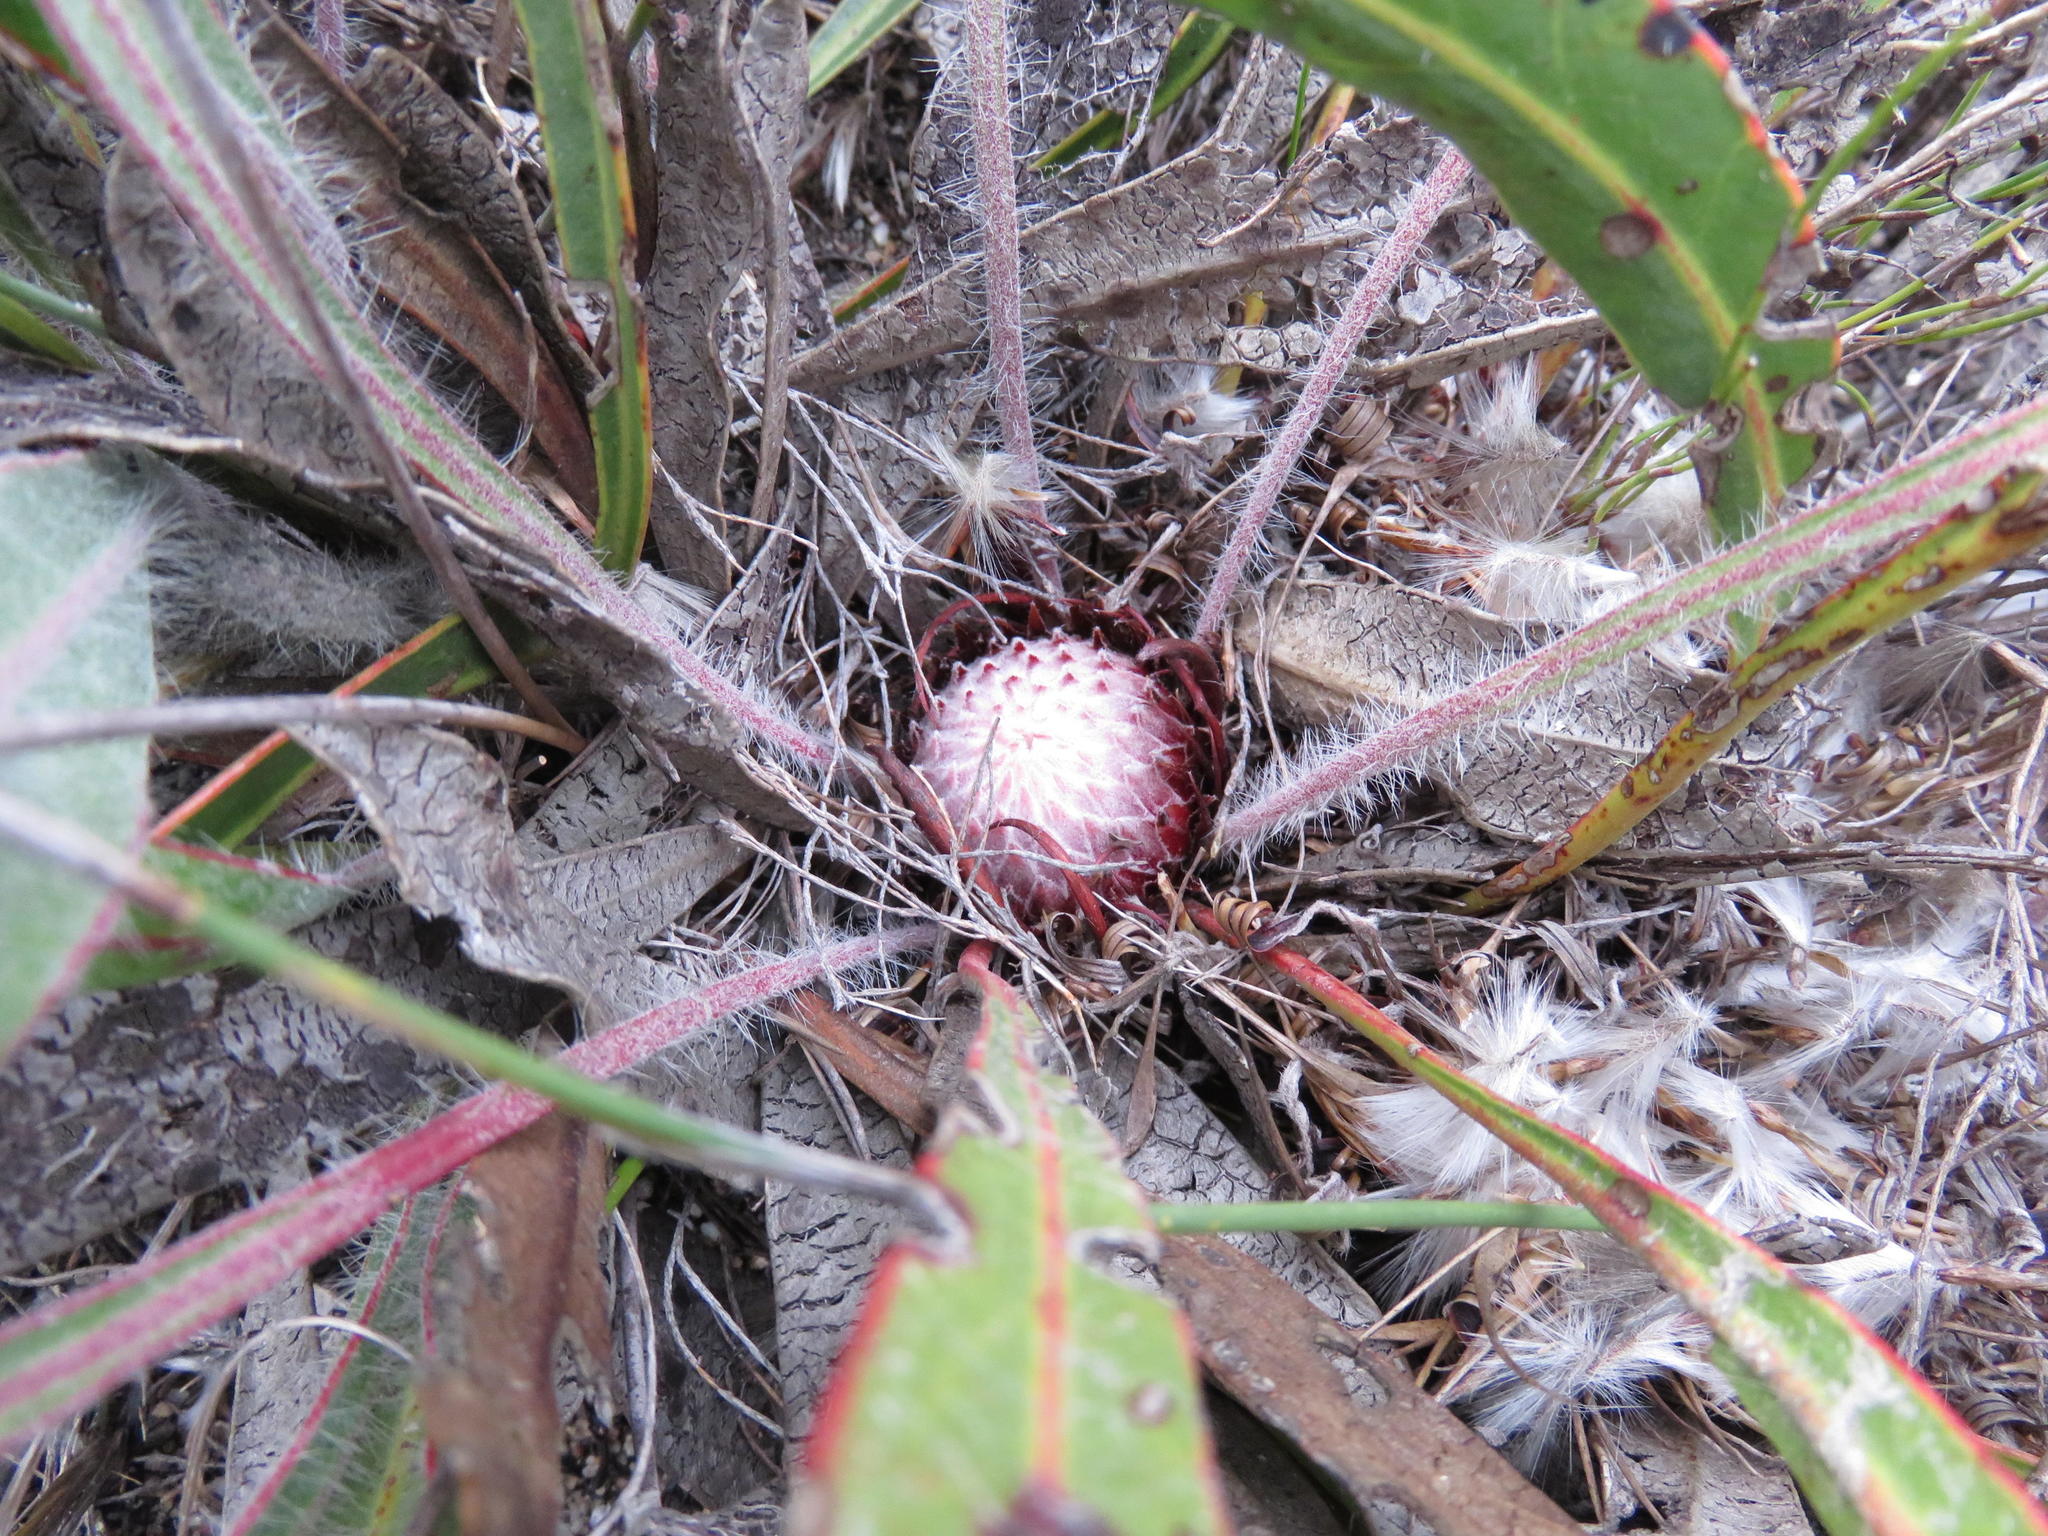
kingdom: Plantae
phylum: Tracheophyta
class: Magnoliopsida
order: Proteales
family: Proteaceae
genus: Protea
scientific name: Protea scolopendriifolia
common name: Harts-tongue-fern sugarbush
